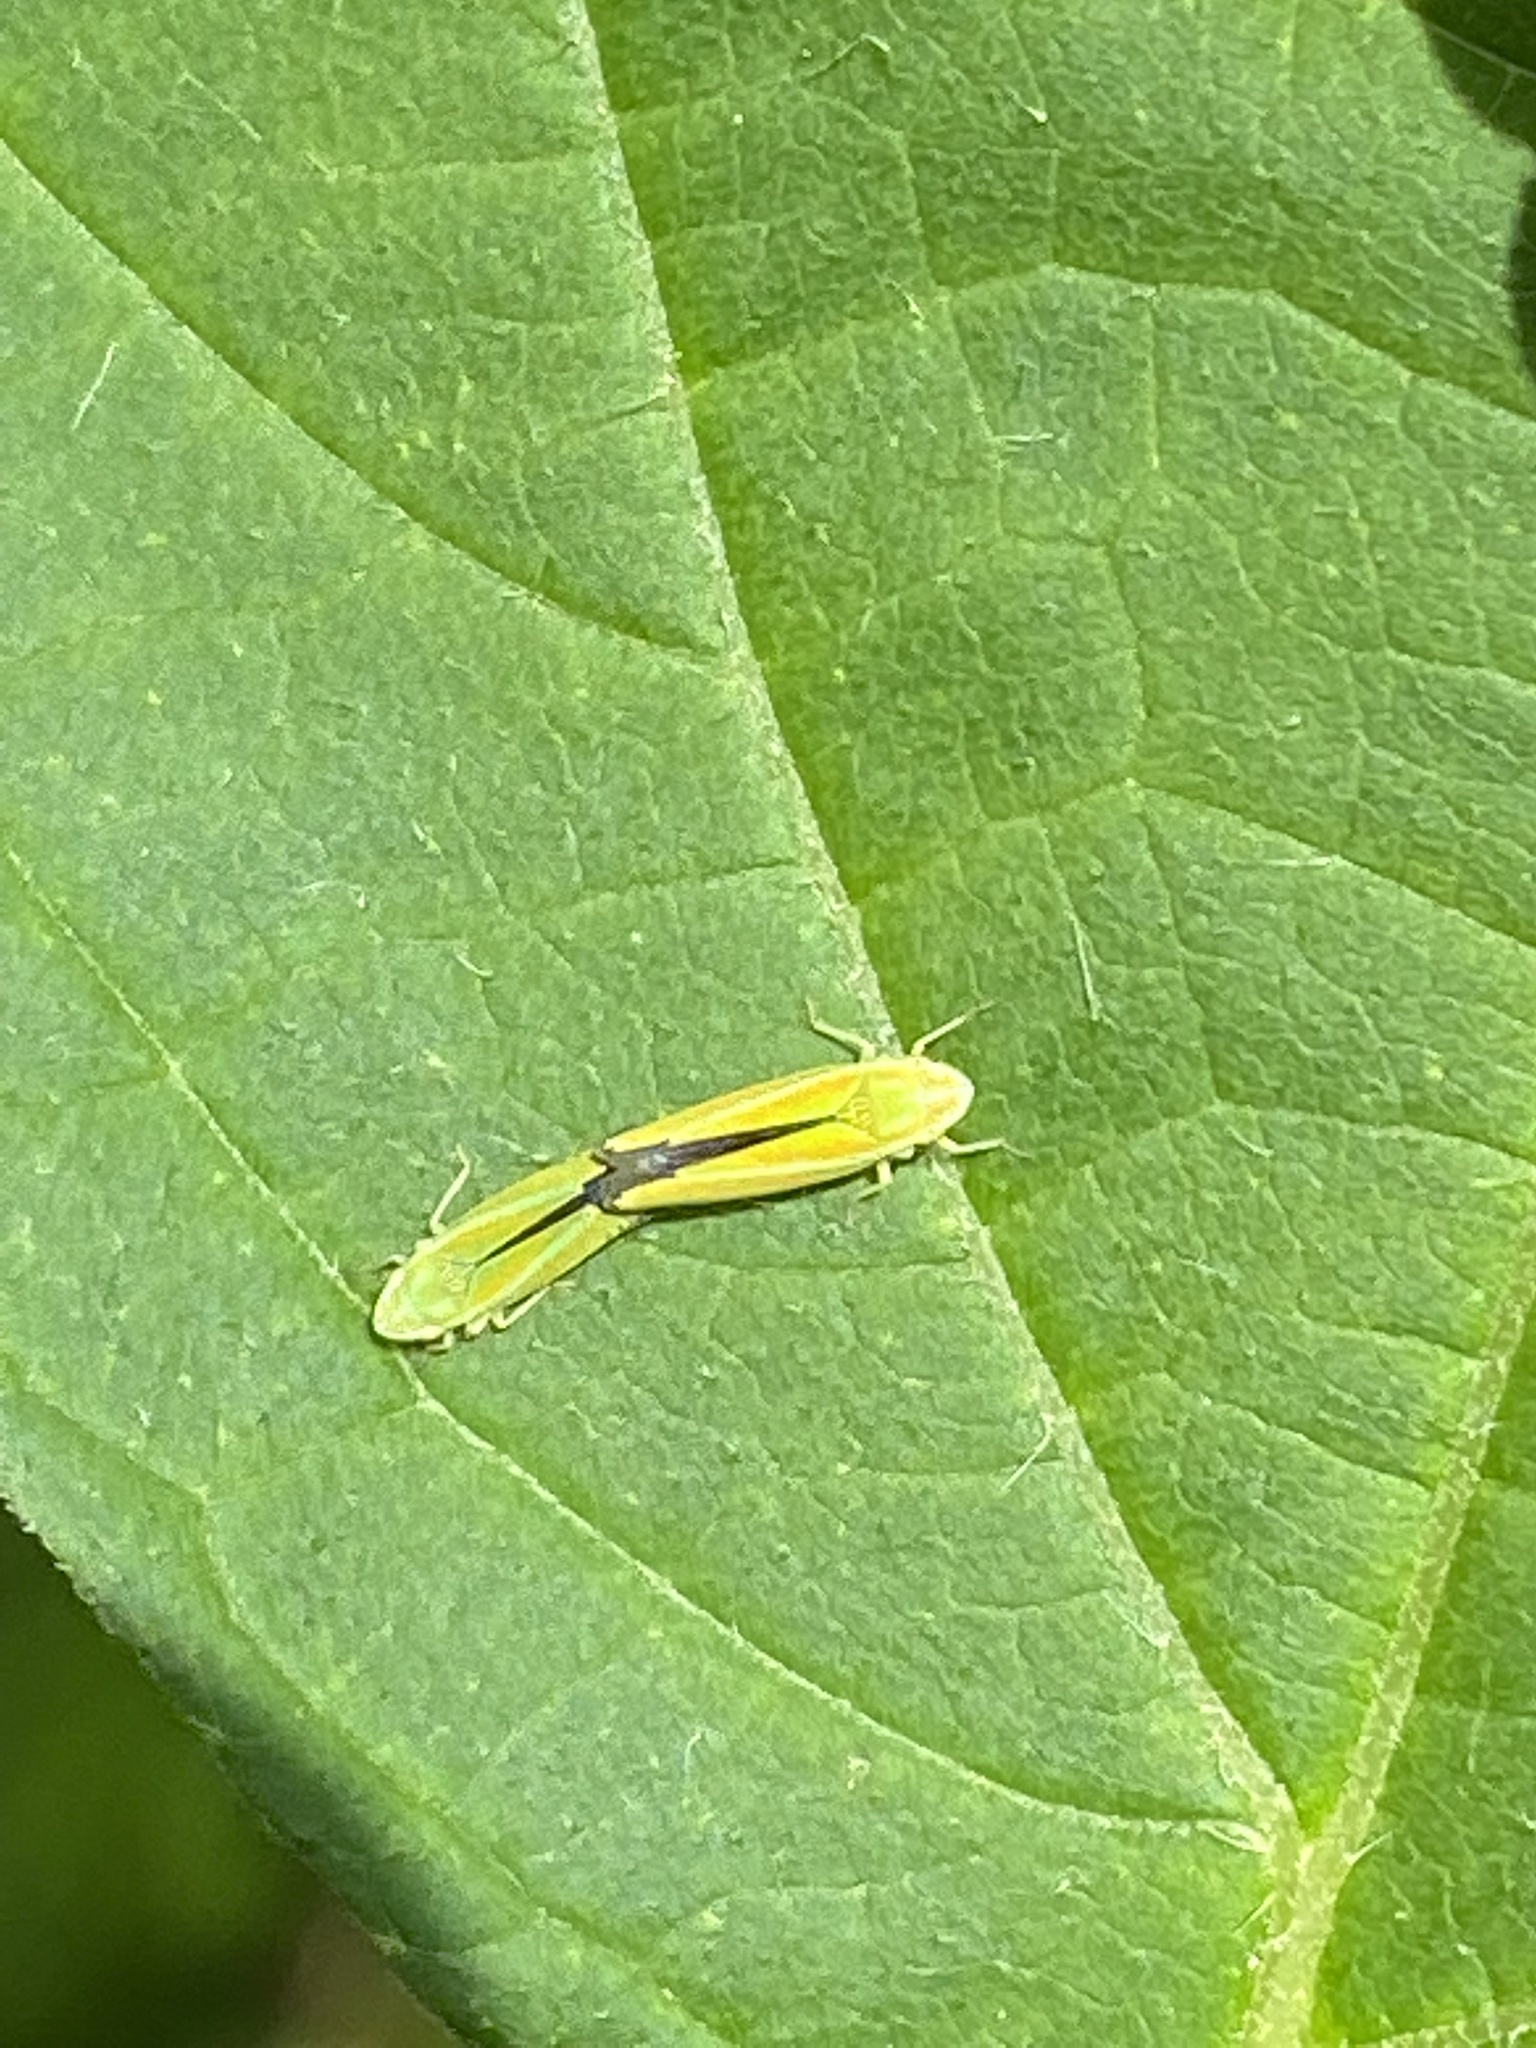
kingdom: Animalia
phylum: Arthropoda
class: Insecta
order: Hemiptera
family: Cicadellidae
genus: Graphocephala
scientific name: Graphocephala versuta
